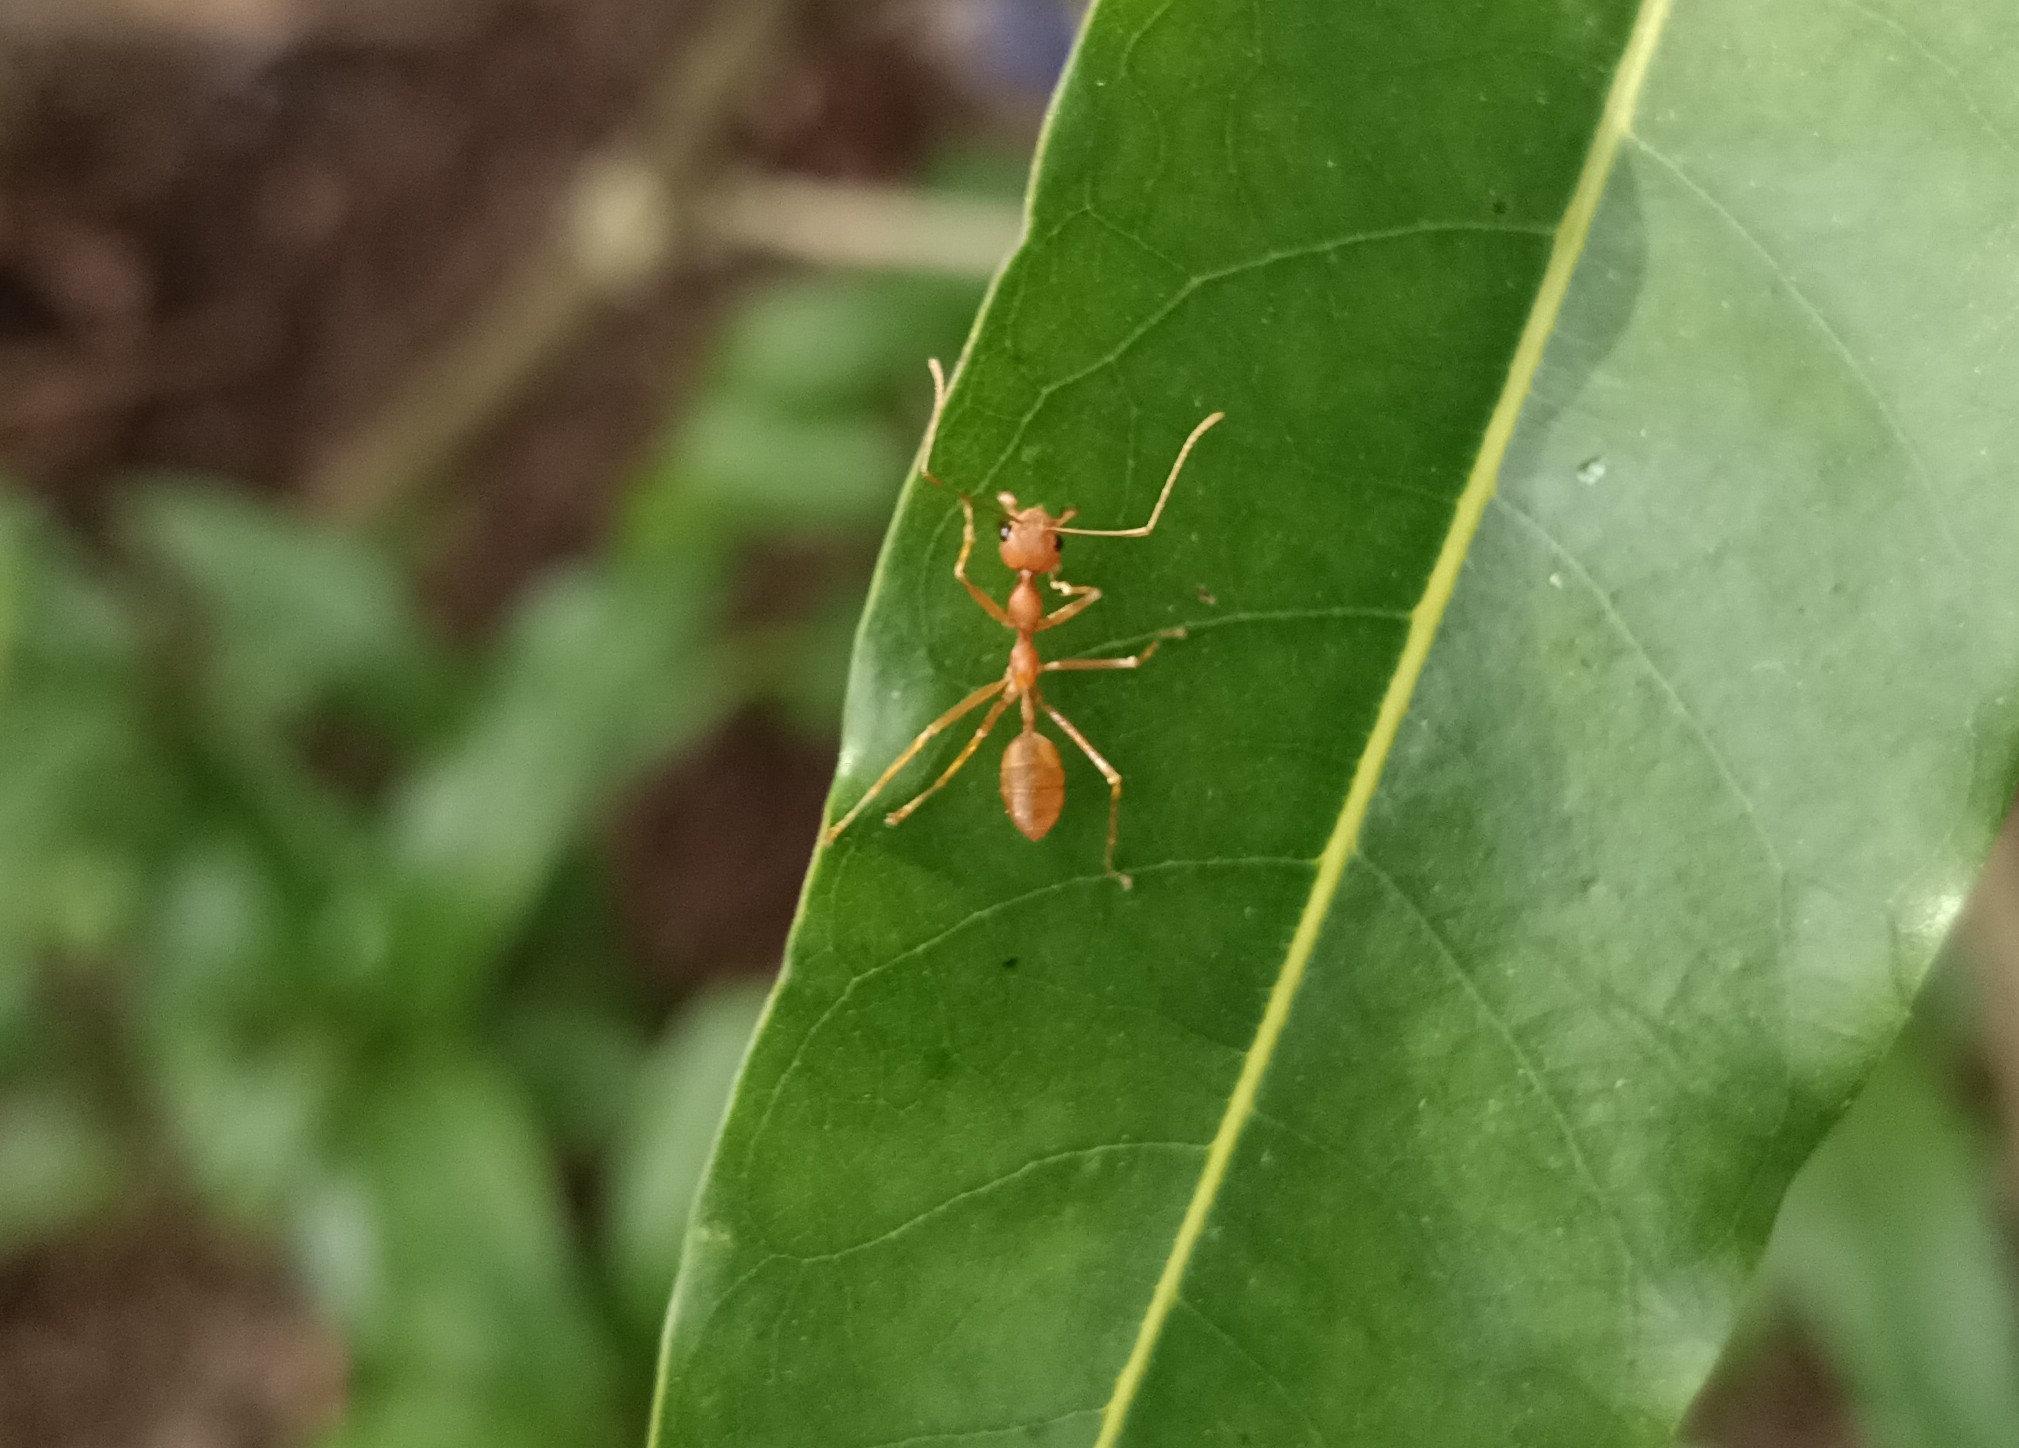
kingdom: Animalia
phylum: Arthropoda
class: Insecta
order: Hymenoptera
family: Formicidae
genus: Oecophylla
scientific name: Oecophylla smaragdina
